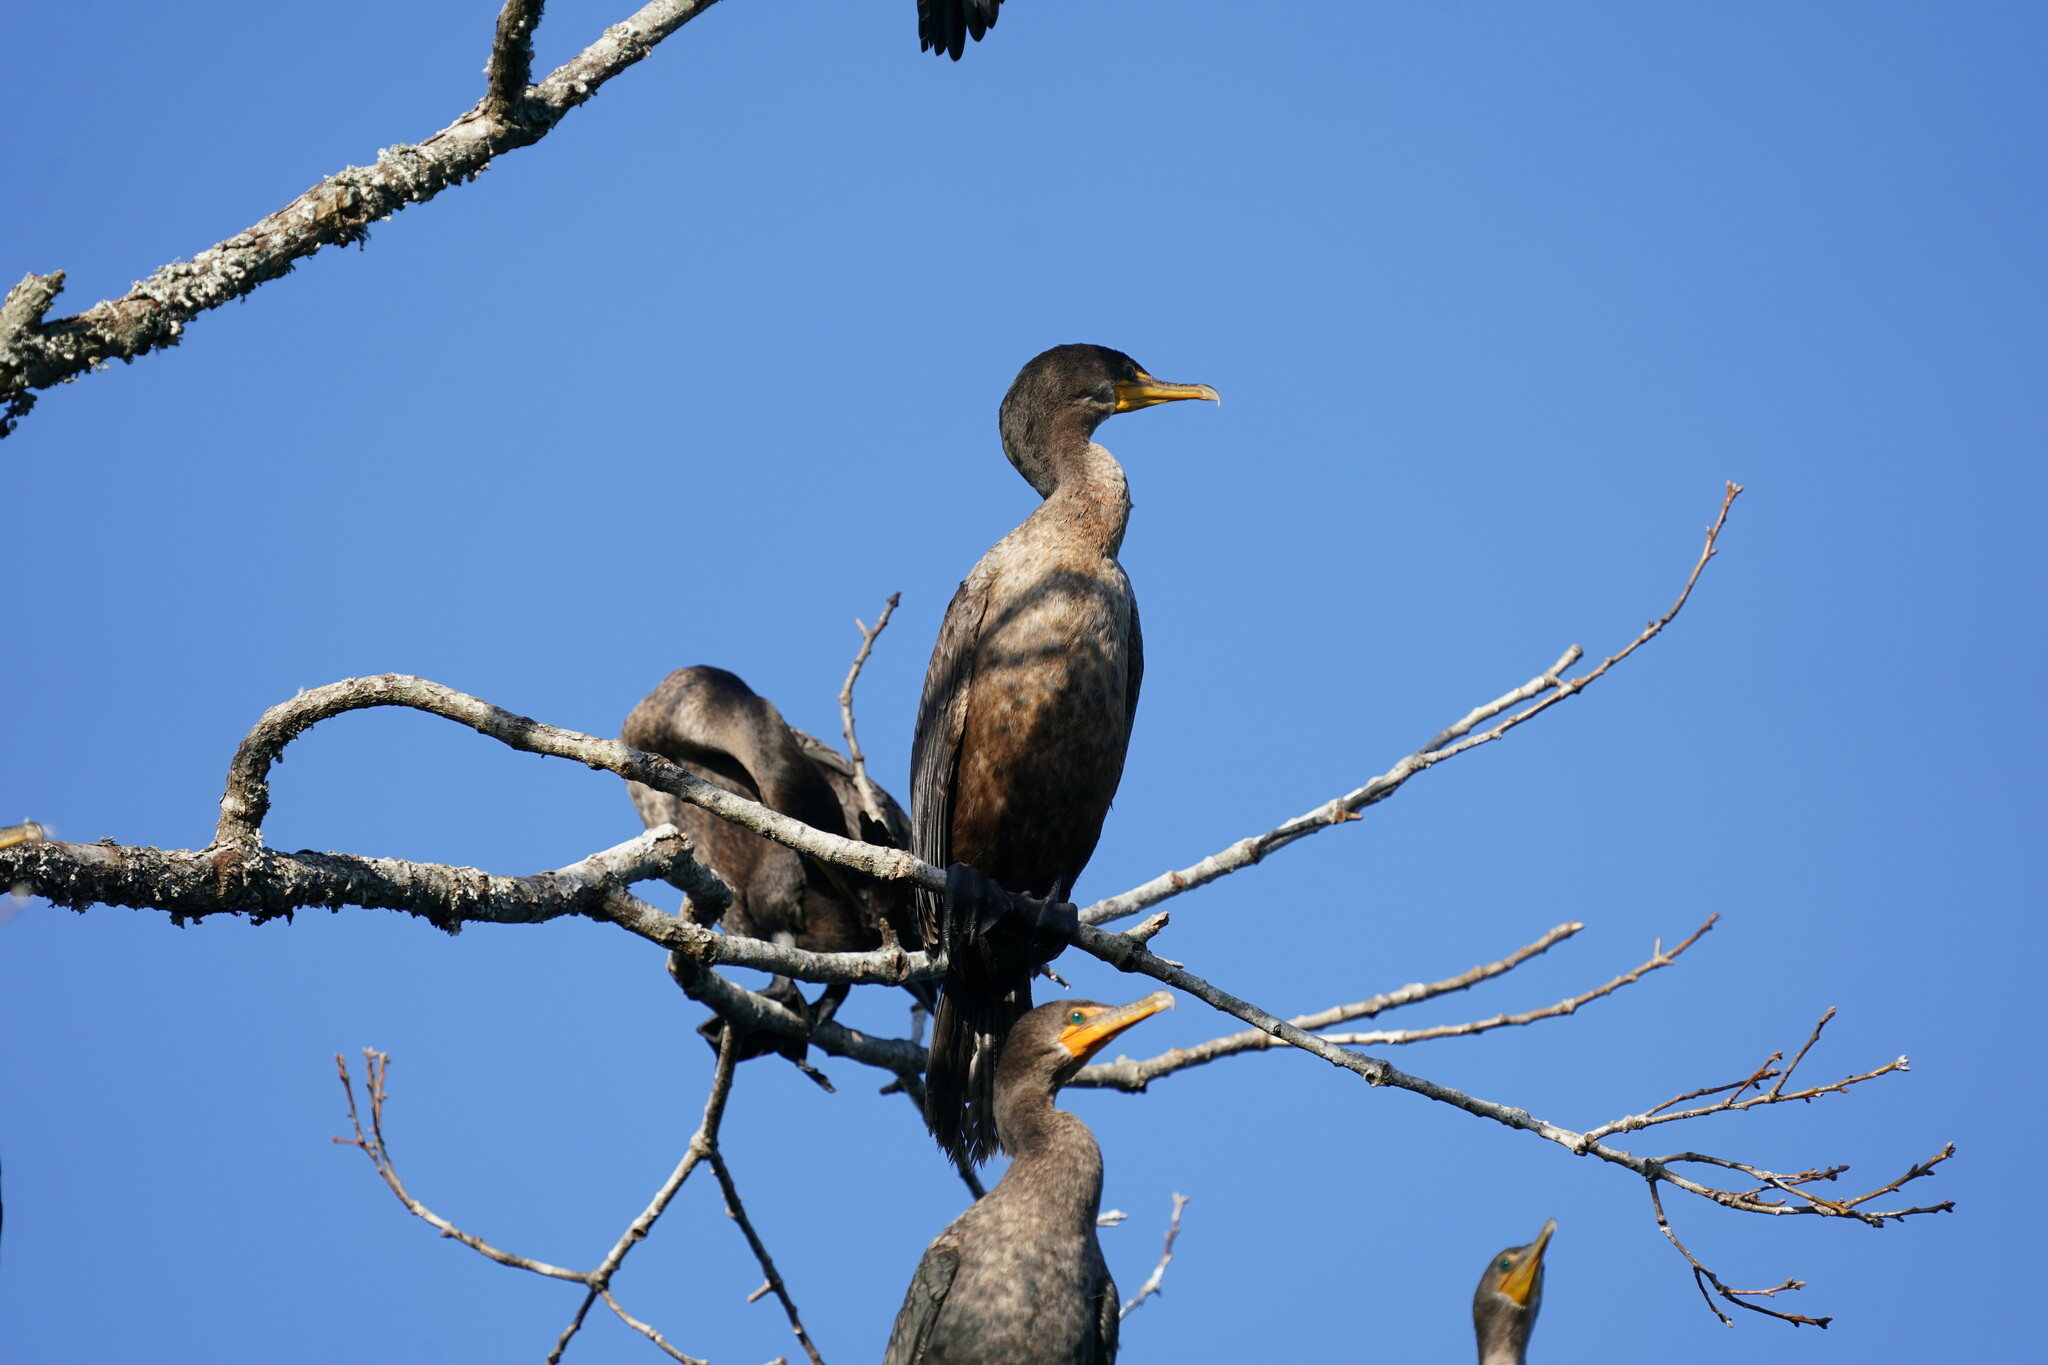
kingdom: Animalia
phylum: Chordata
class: Aves
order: Suliformes
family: Phalacrocoracidae
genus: Phalacrocorax
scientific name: Phalacrocorax auritus
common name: Double-crested cormorant
